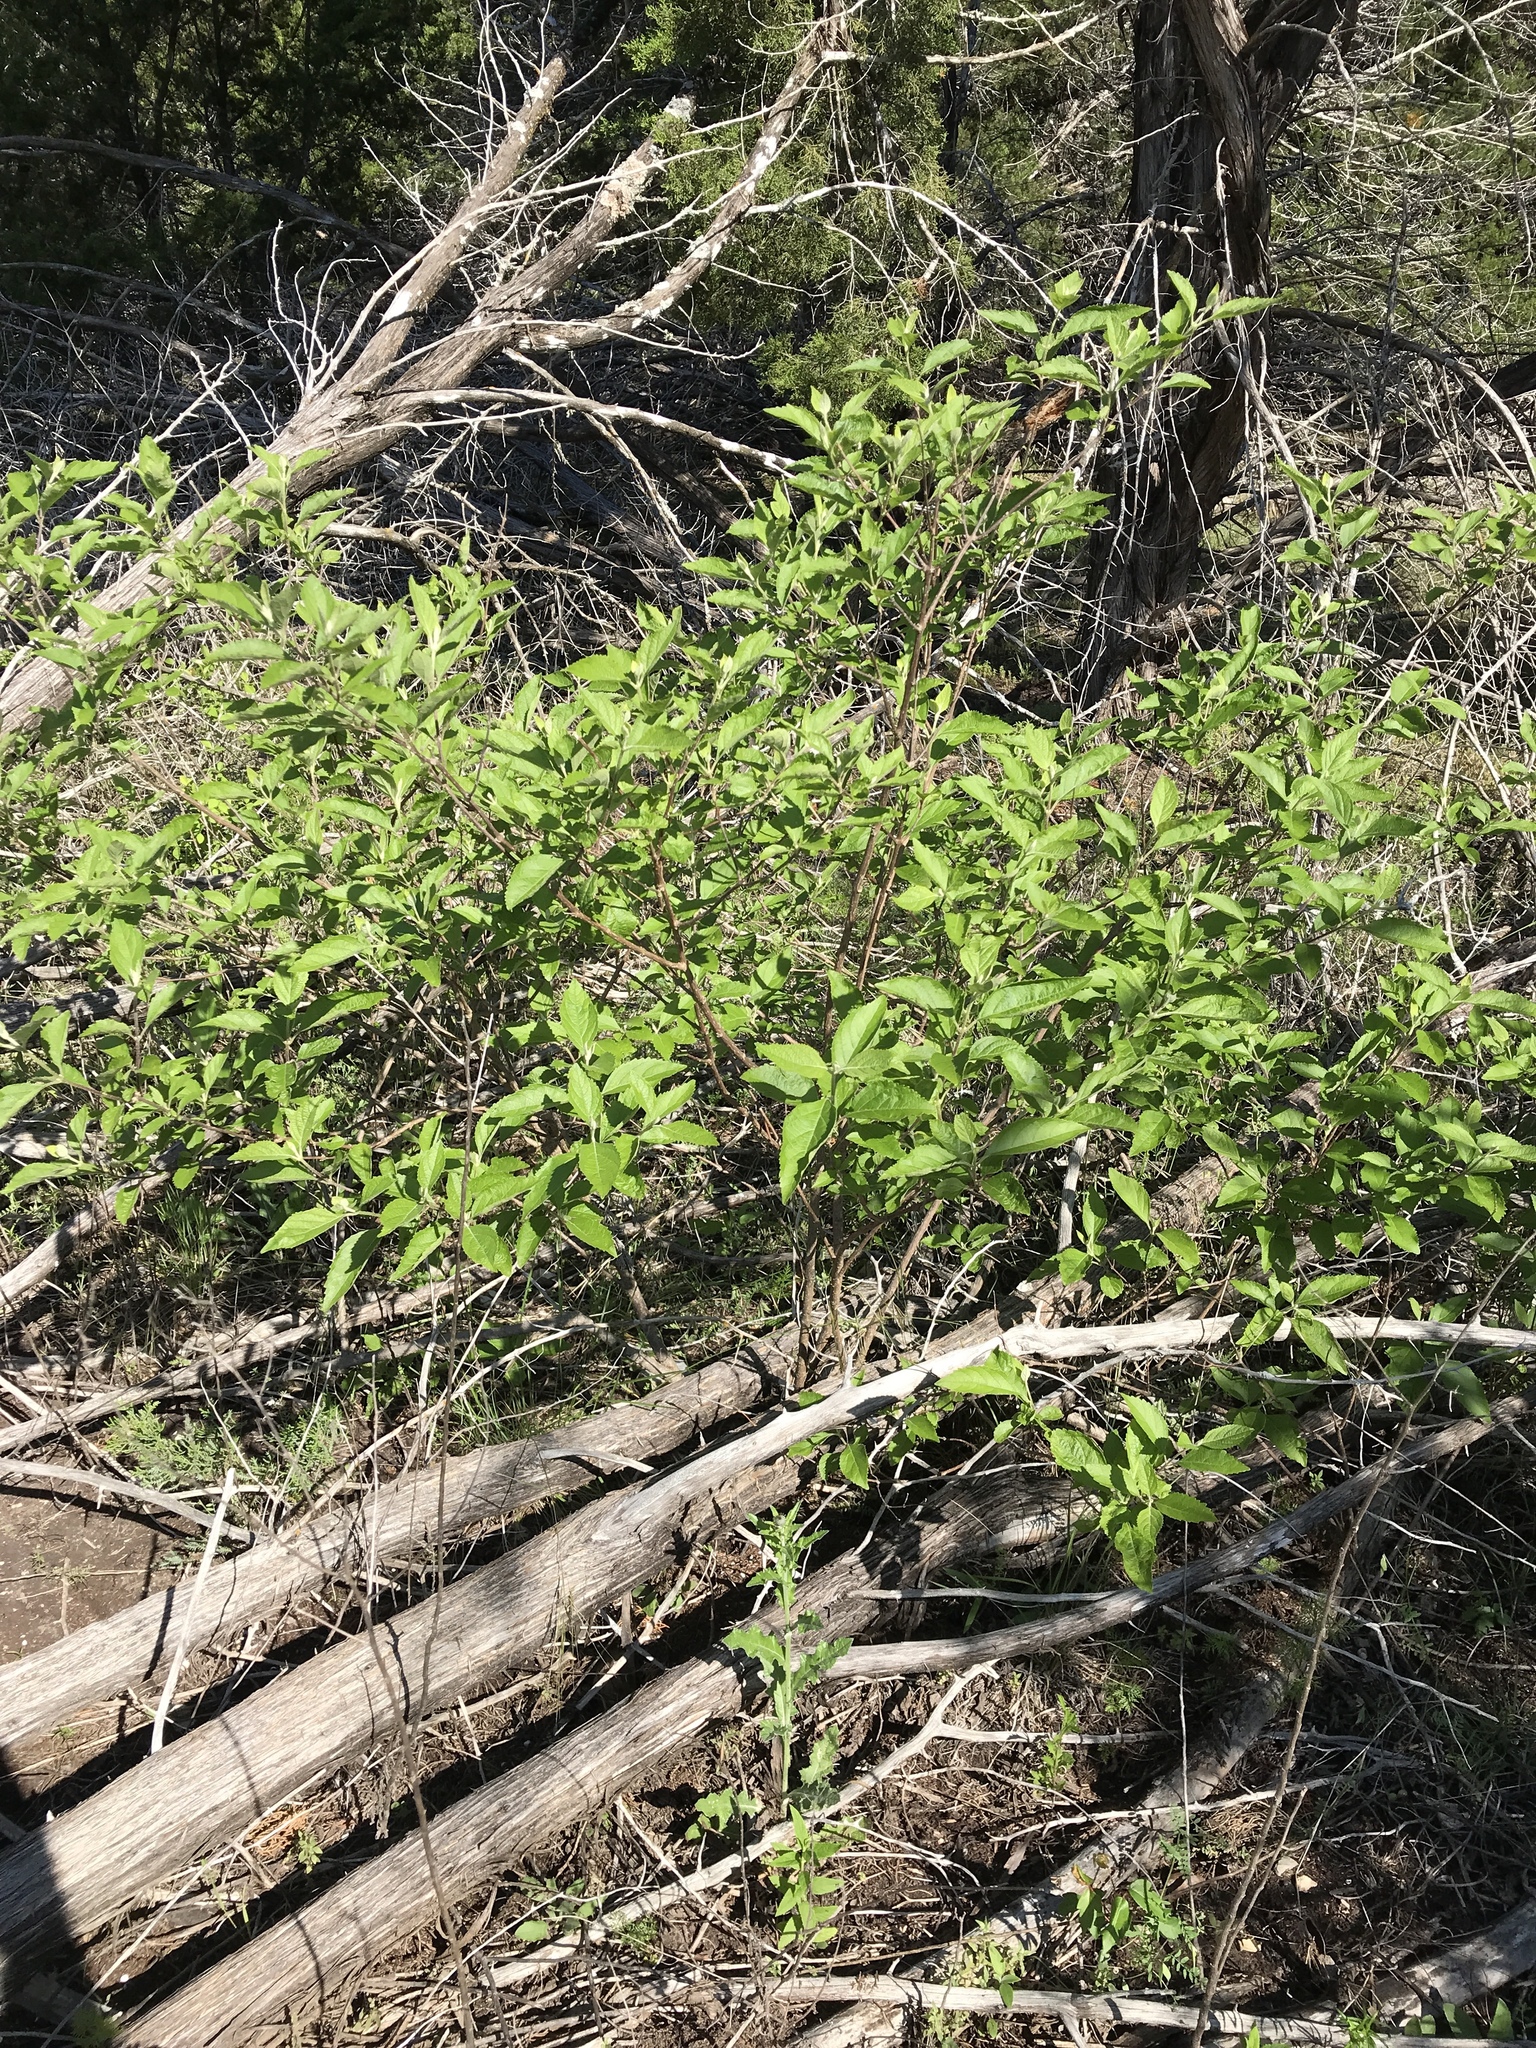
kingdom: Plantae
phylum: Tracheophyta
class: Magnoliopsida
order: Lamiales
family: Lamiaceae
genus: Callicarpa
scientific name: Callicarpa americana
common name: American beautyberry
